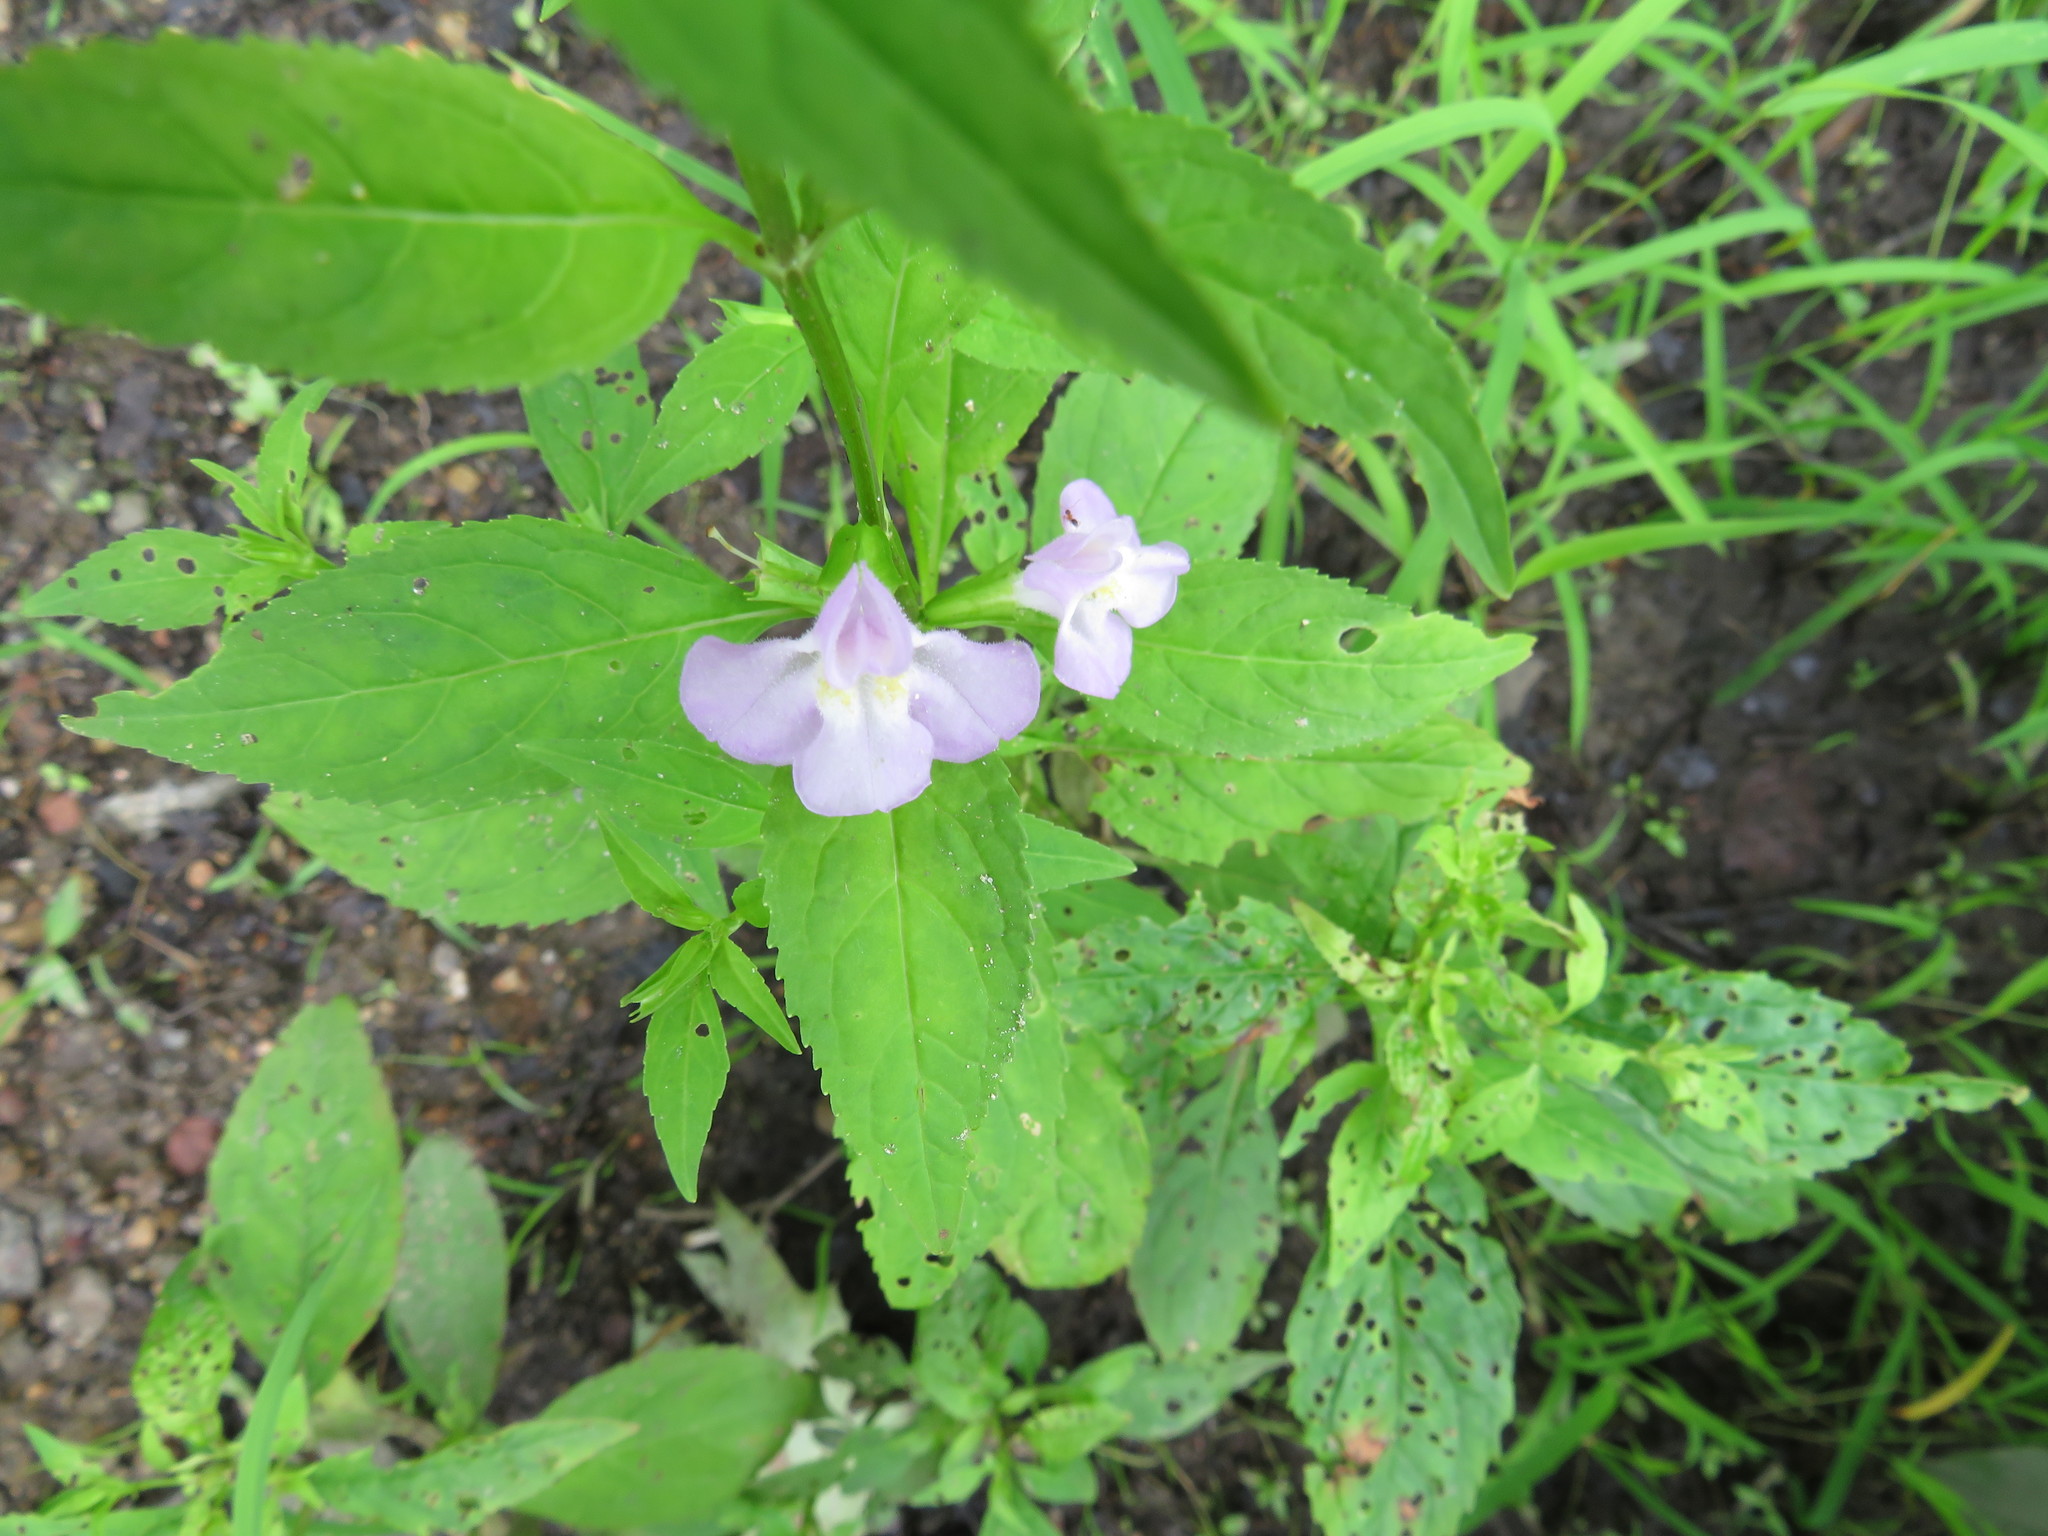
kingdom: Plantae
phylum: Tracheophyta
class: Magnoliopsida
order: Lamiales
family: Phrymaceae
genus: Mimulus
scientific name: Mimulus alatus
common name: Sharp-wing monkey-flower
